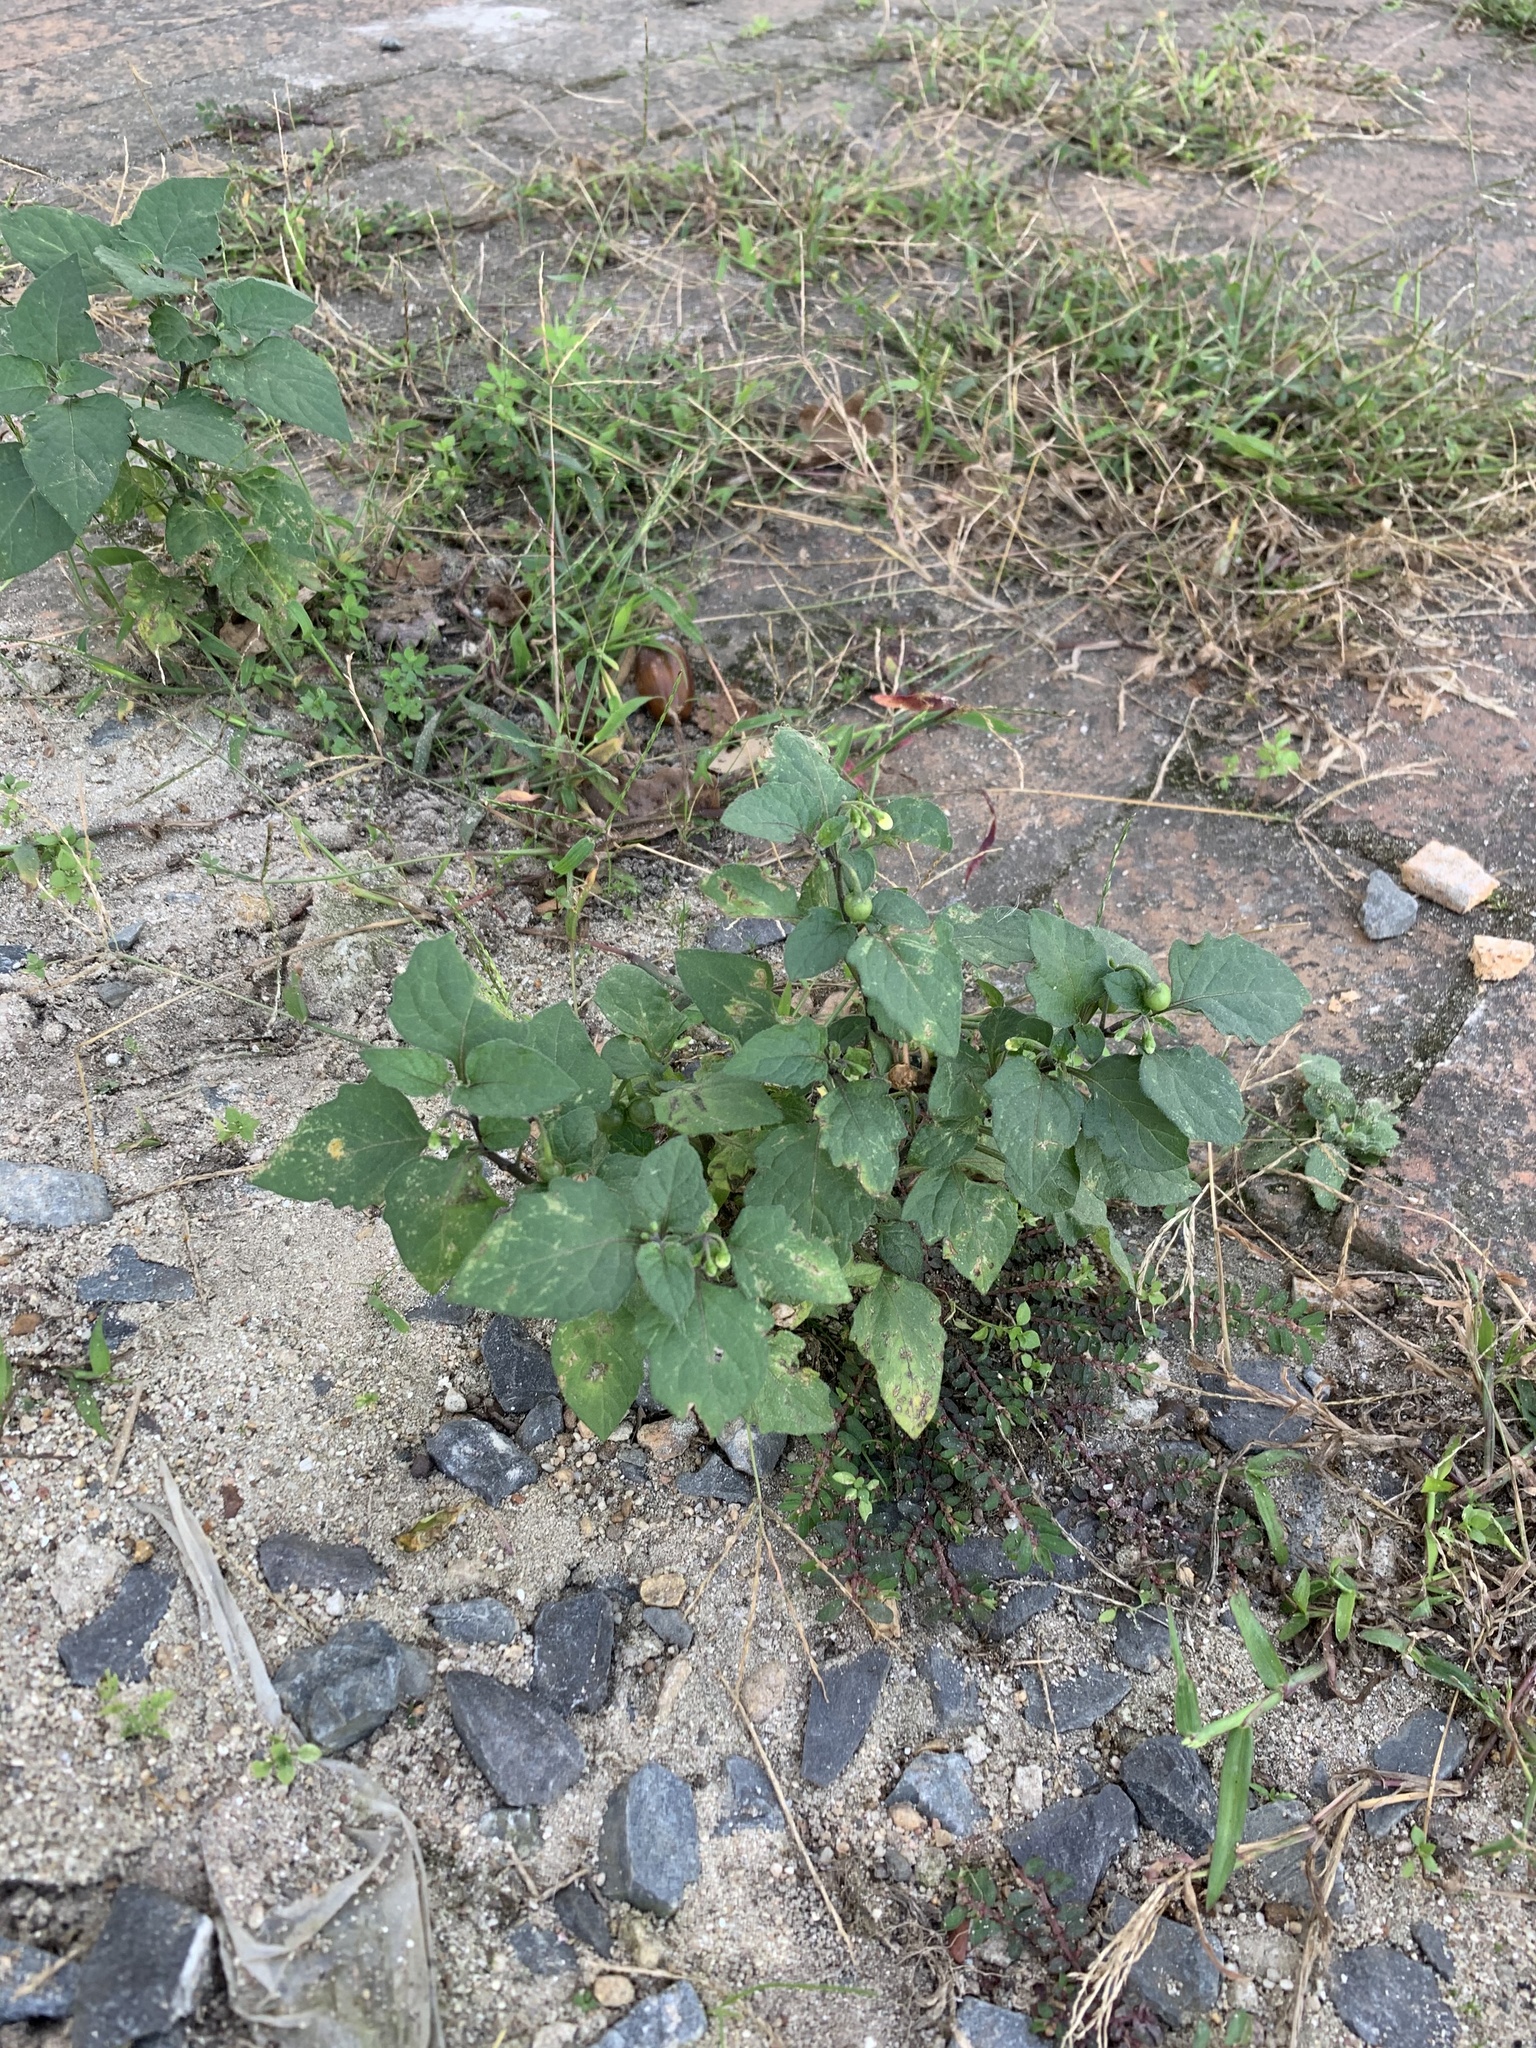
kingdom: Plantae
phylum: Tracheophyta
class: Magnoliopsida
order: Solanales
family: Solanaceae
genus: Solanum
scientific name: Solanum nigrum
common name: Black nightshade
